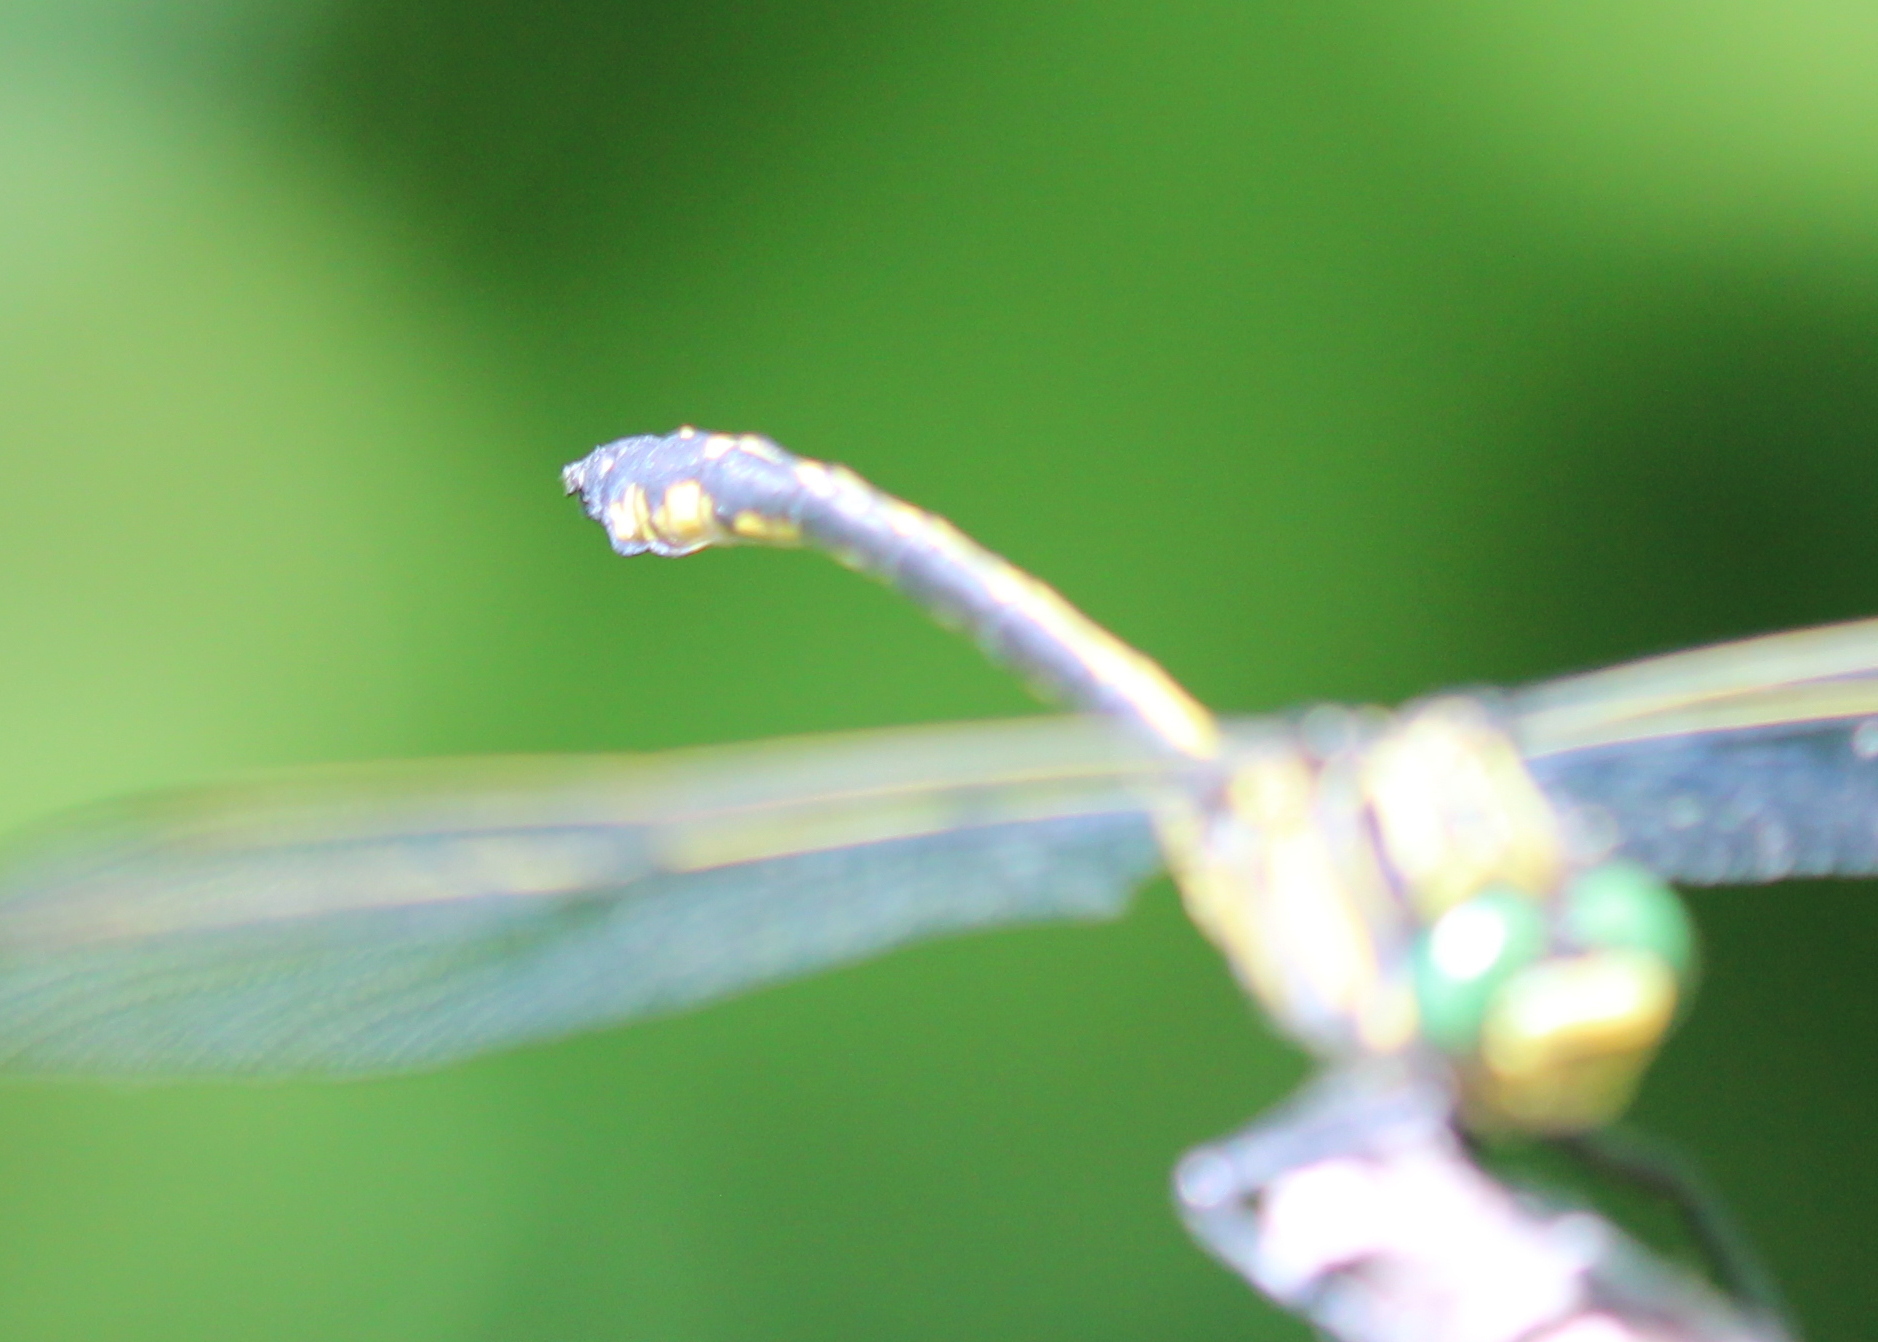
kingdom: Animalia
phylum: Arthropoda
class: Insecta
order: Odonata
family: Gomphidae
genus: Hagenius
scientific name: Hagenius brevistylus
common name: Dragonhunter
